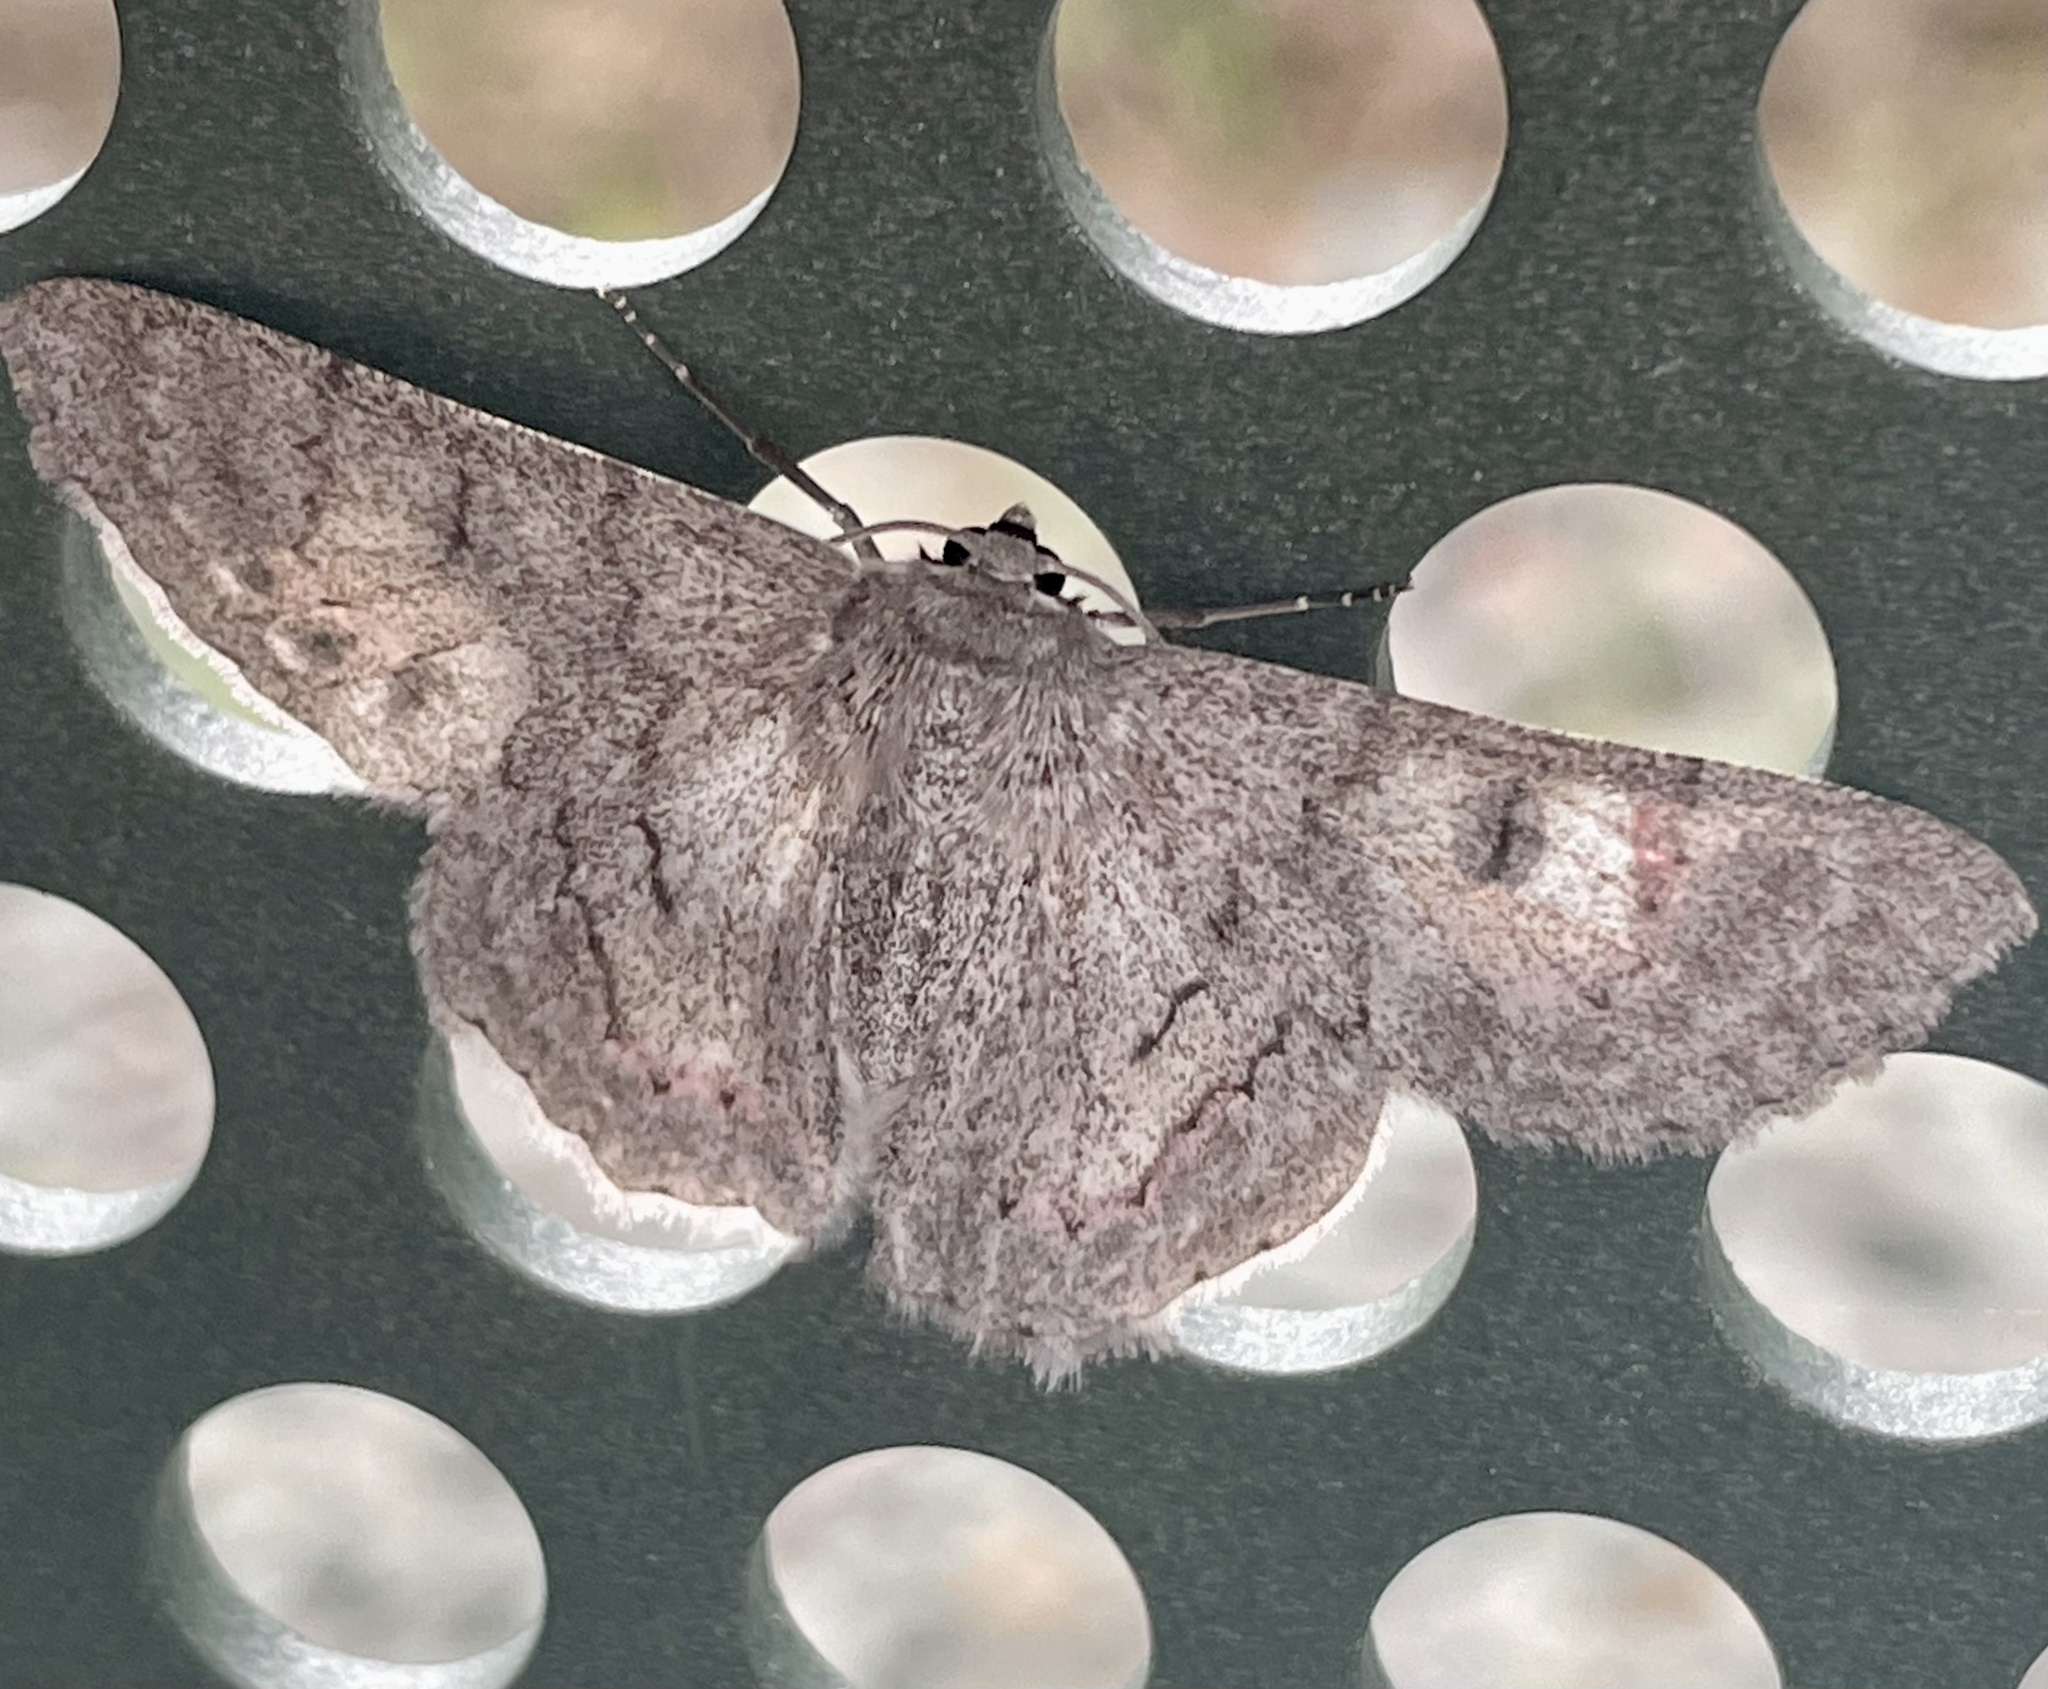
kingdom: Animalia
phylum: Arthropoda
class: Insecta
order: Lepidoptera
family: Geometridae
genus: Crypsiphona
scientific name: Crypsiphona ocultaria
